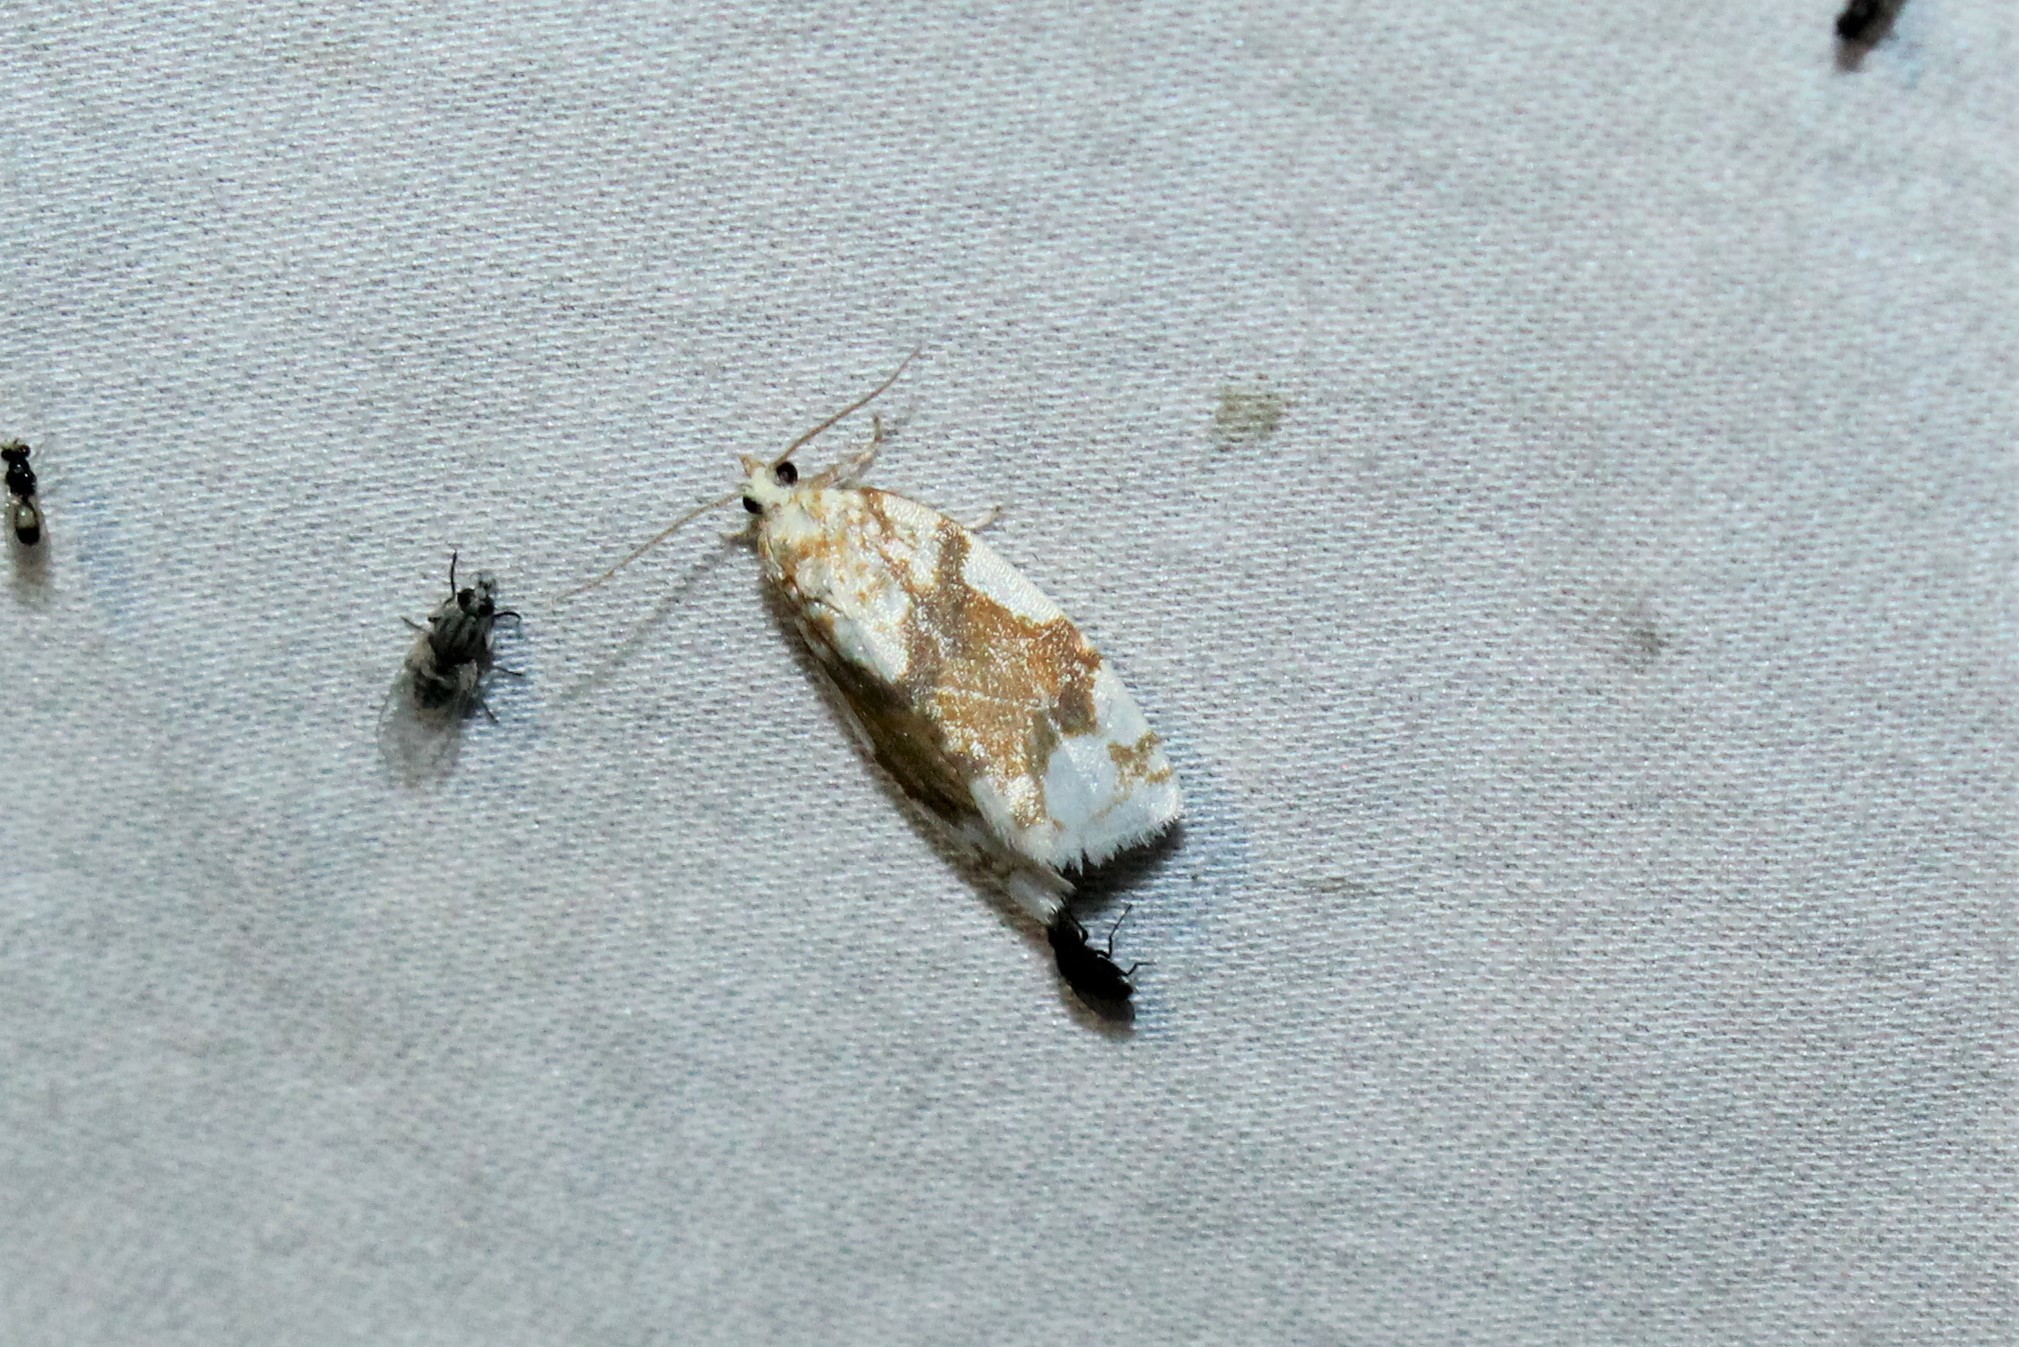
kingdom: Animalia
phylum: Arthropoda
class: Insecta
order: Lepidoptera
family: Tortricidae
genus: Argyrotaenia
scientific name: Argyrotaenia alisellana
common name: White-spotted leafroller moth
